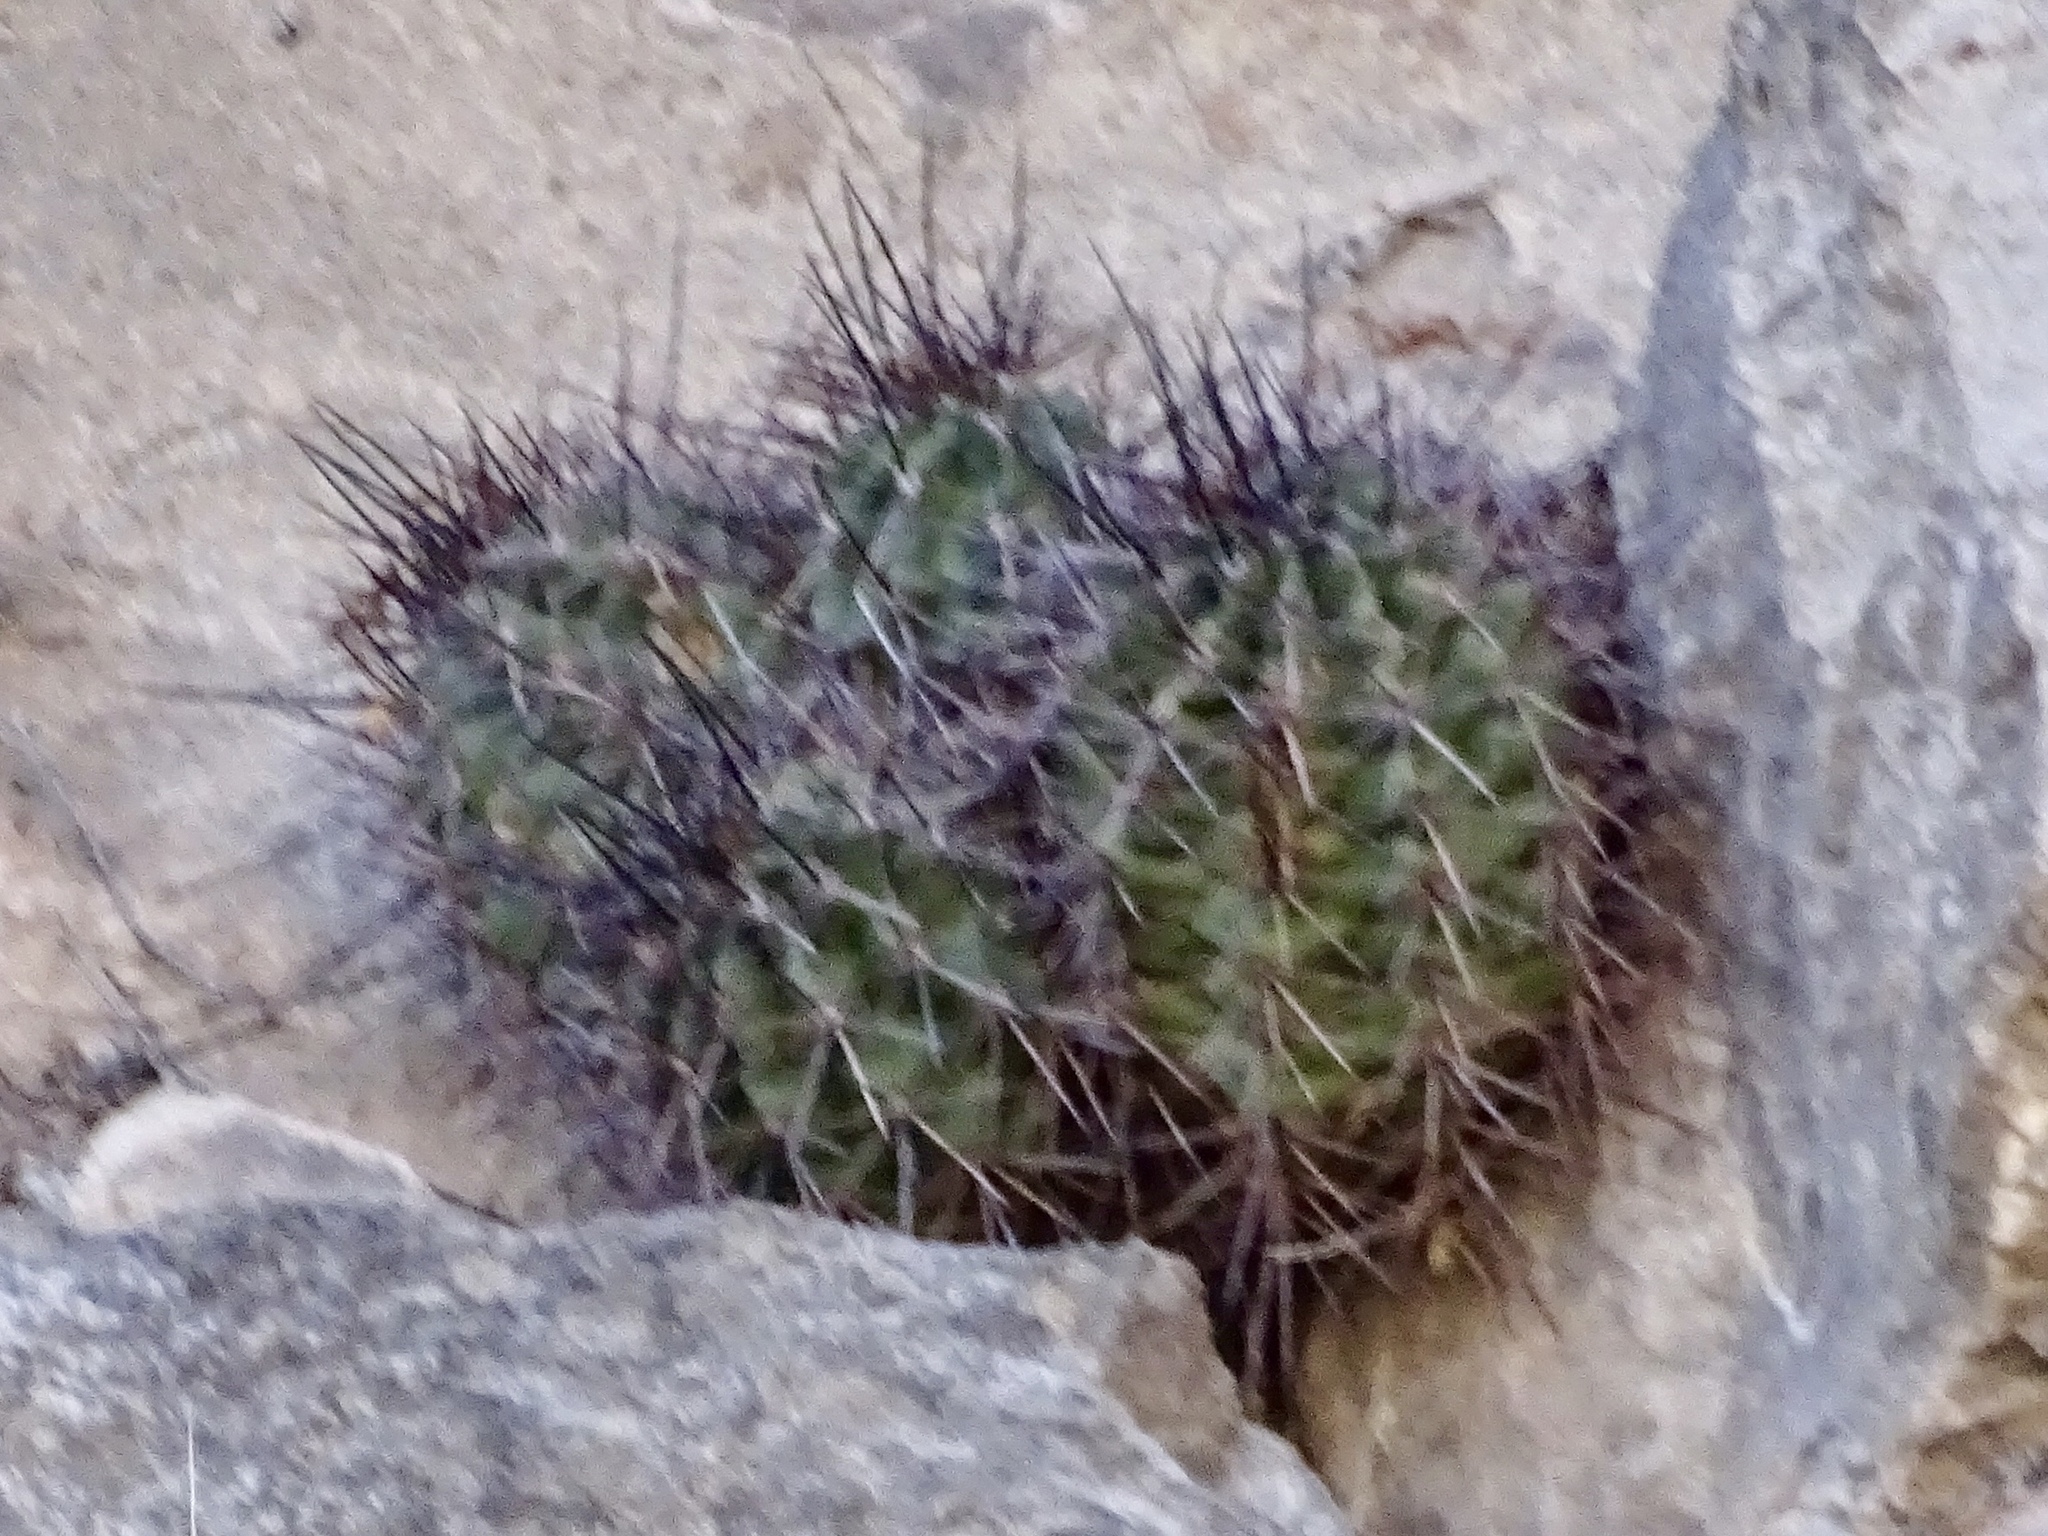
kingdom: Plantae
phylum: Tracheophyta
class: Magnoliopsida
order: Caryophyllales
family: Cactaceae
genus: Echinocereus
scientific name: Echinocereus coccineus
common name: Scarlet hedgehog cactus
